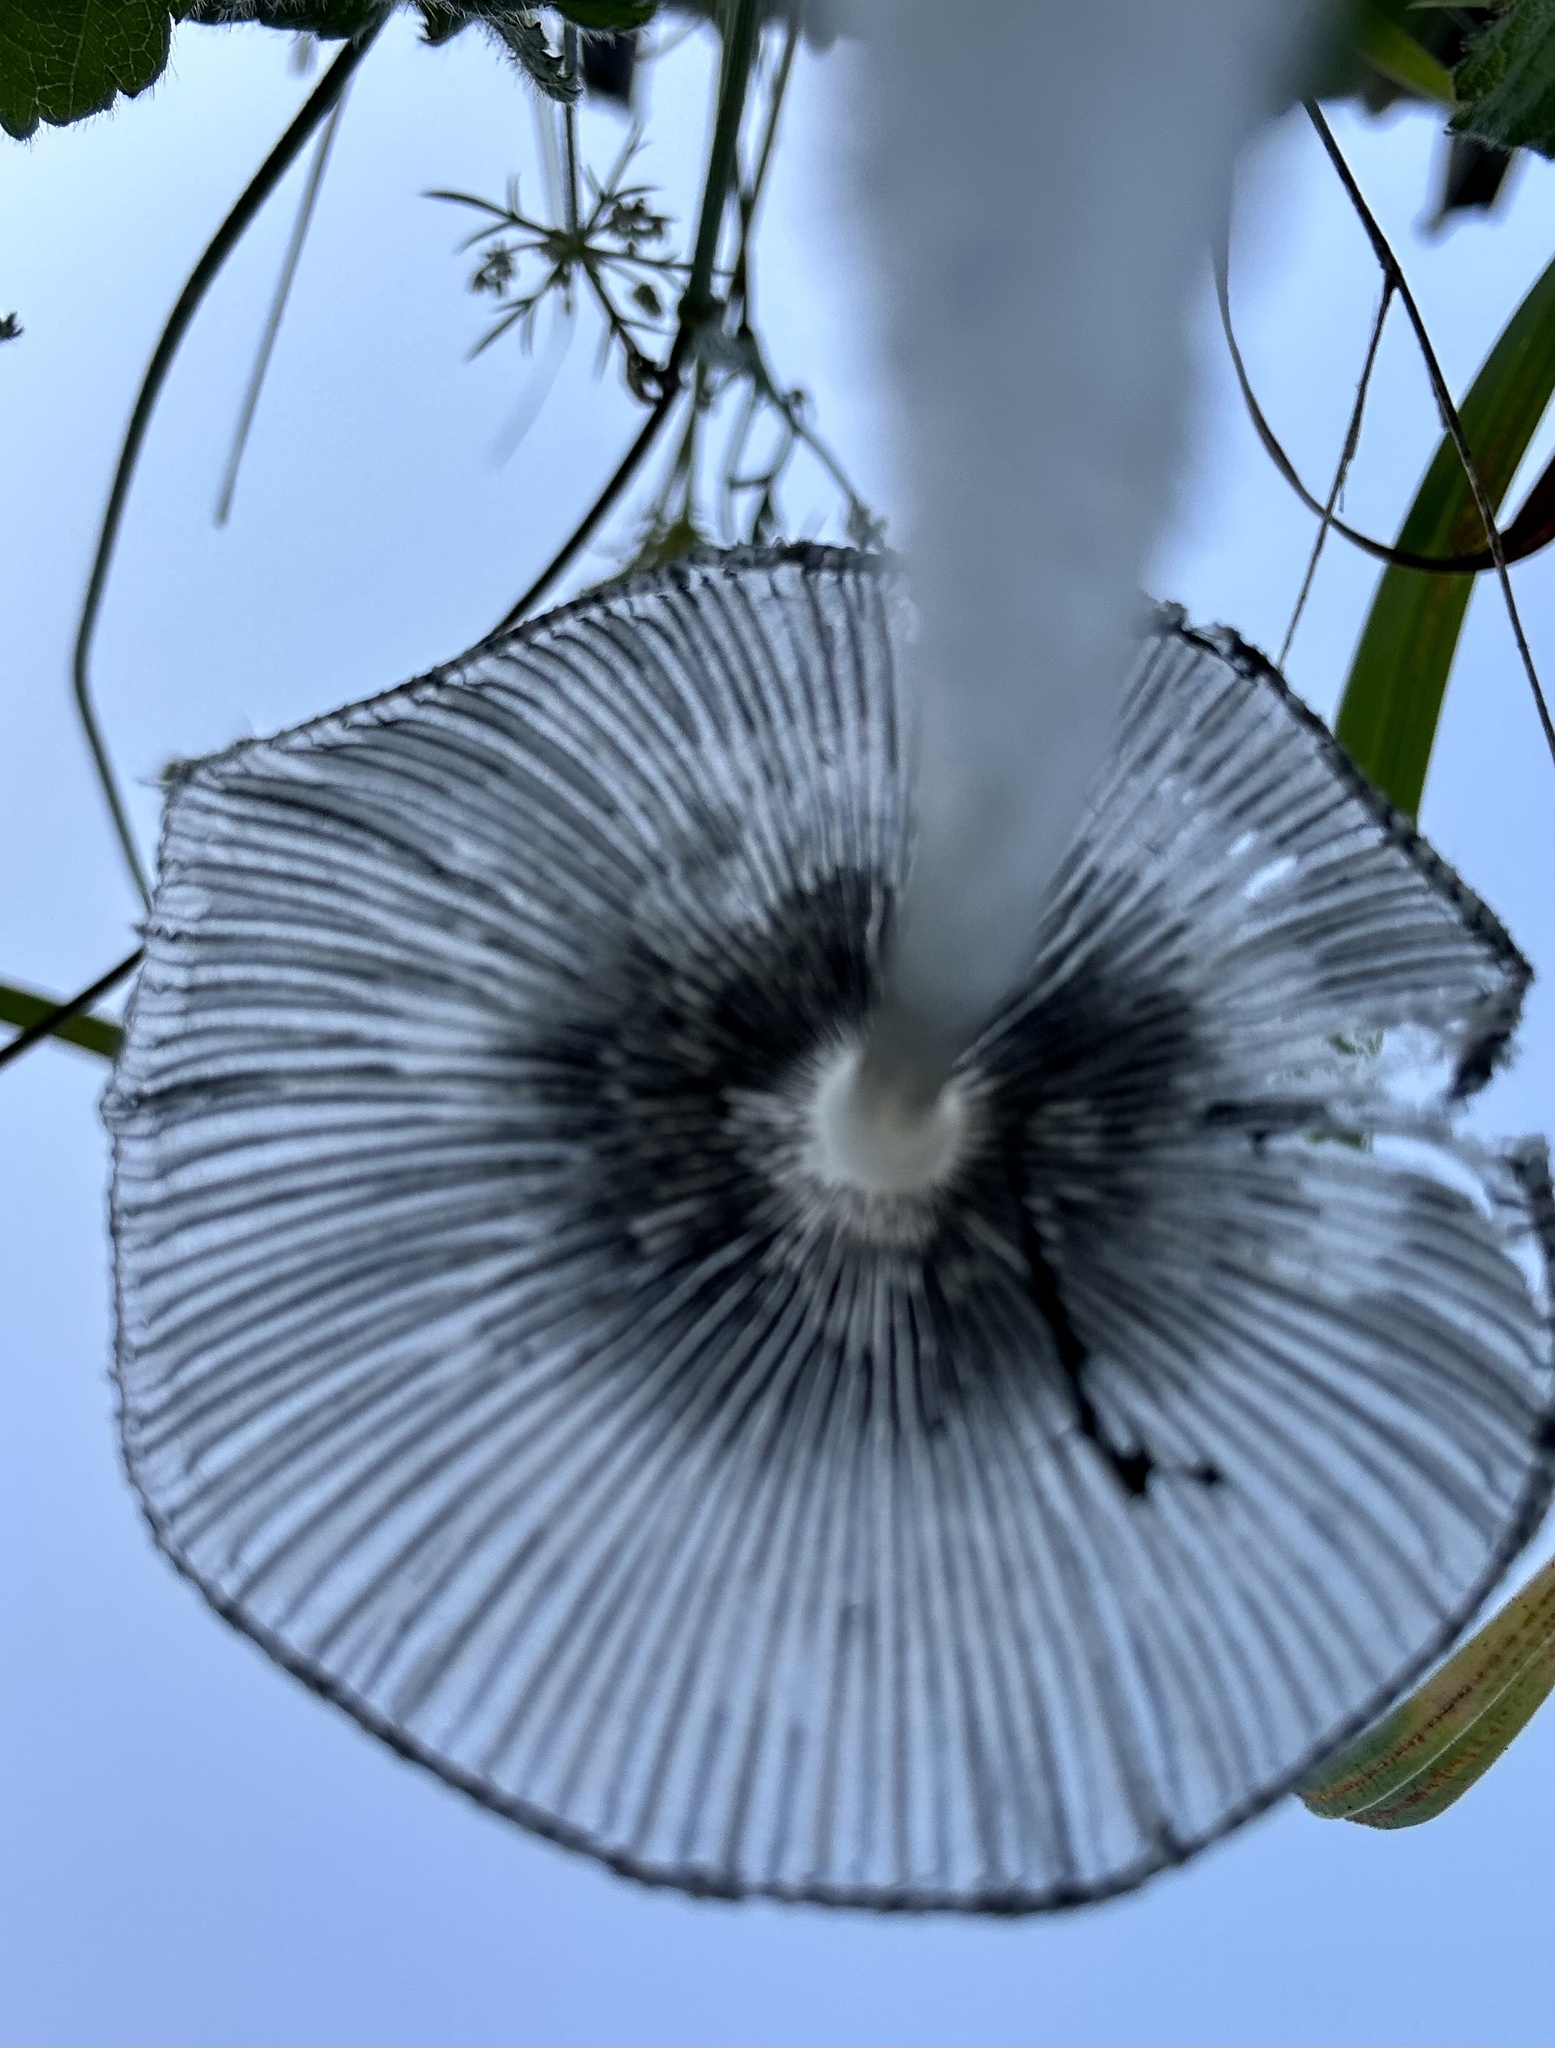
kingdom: Fungi
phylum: Basidiomycota
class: Agaricomycetes
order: Agaricales
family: Psathyrellaceae
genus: Coprinopsis
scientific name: Coprinopsis lagopus
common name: Hare'sfoot inkcap
